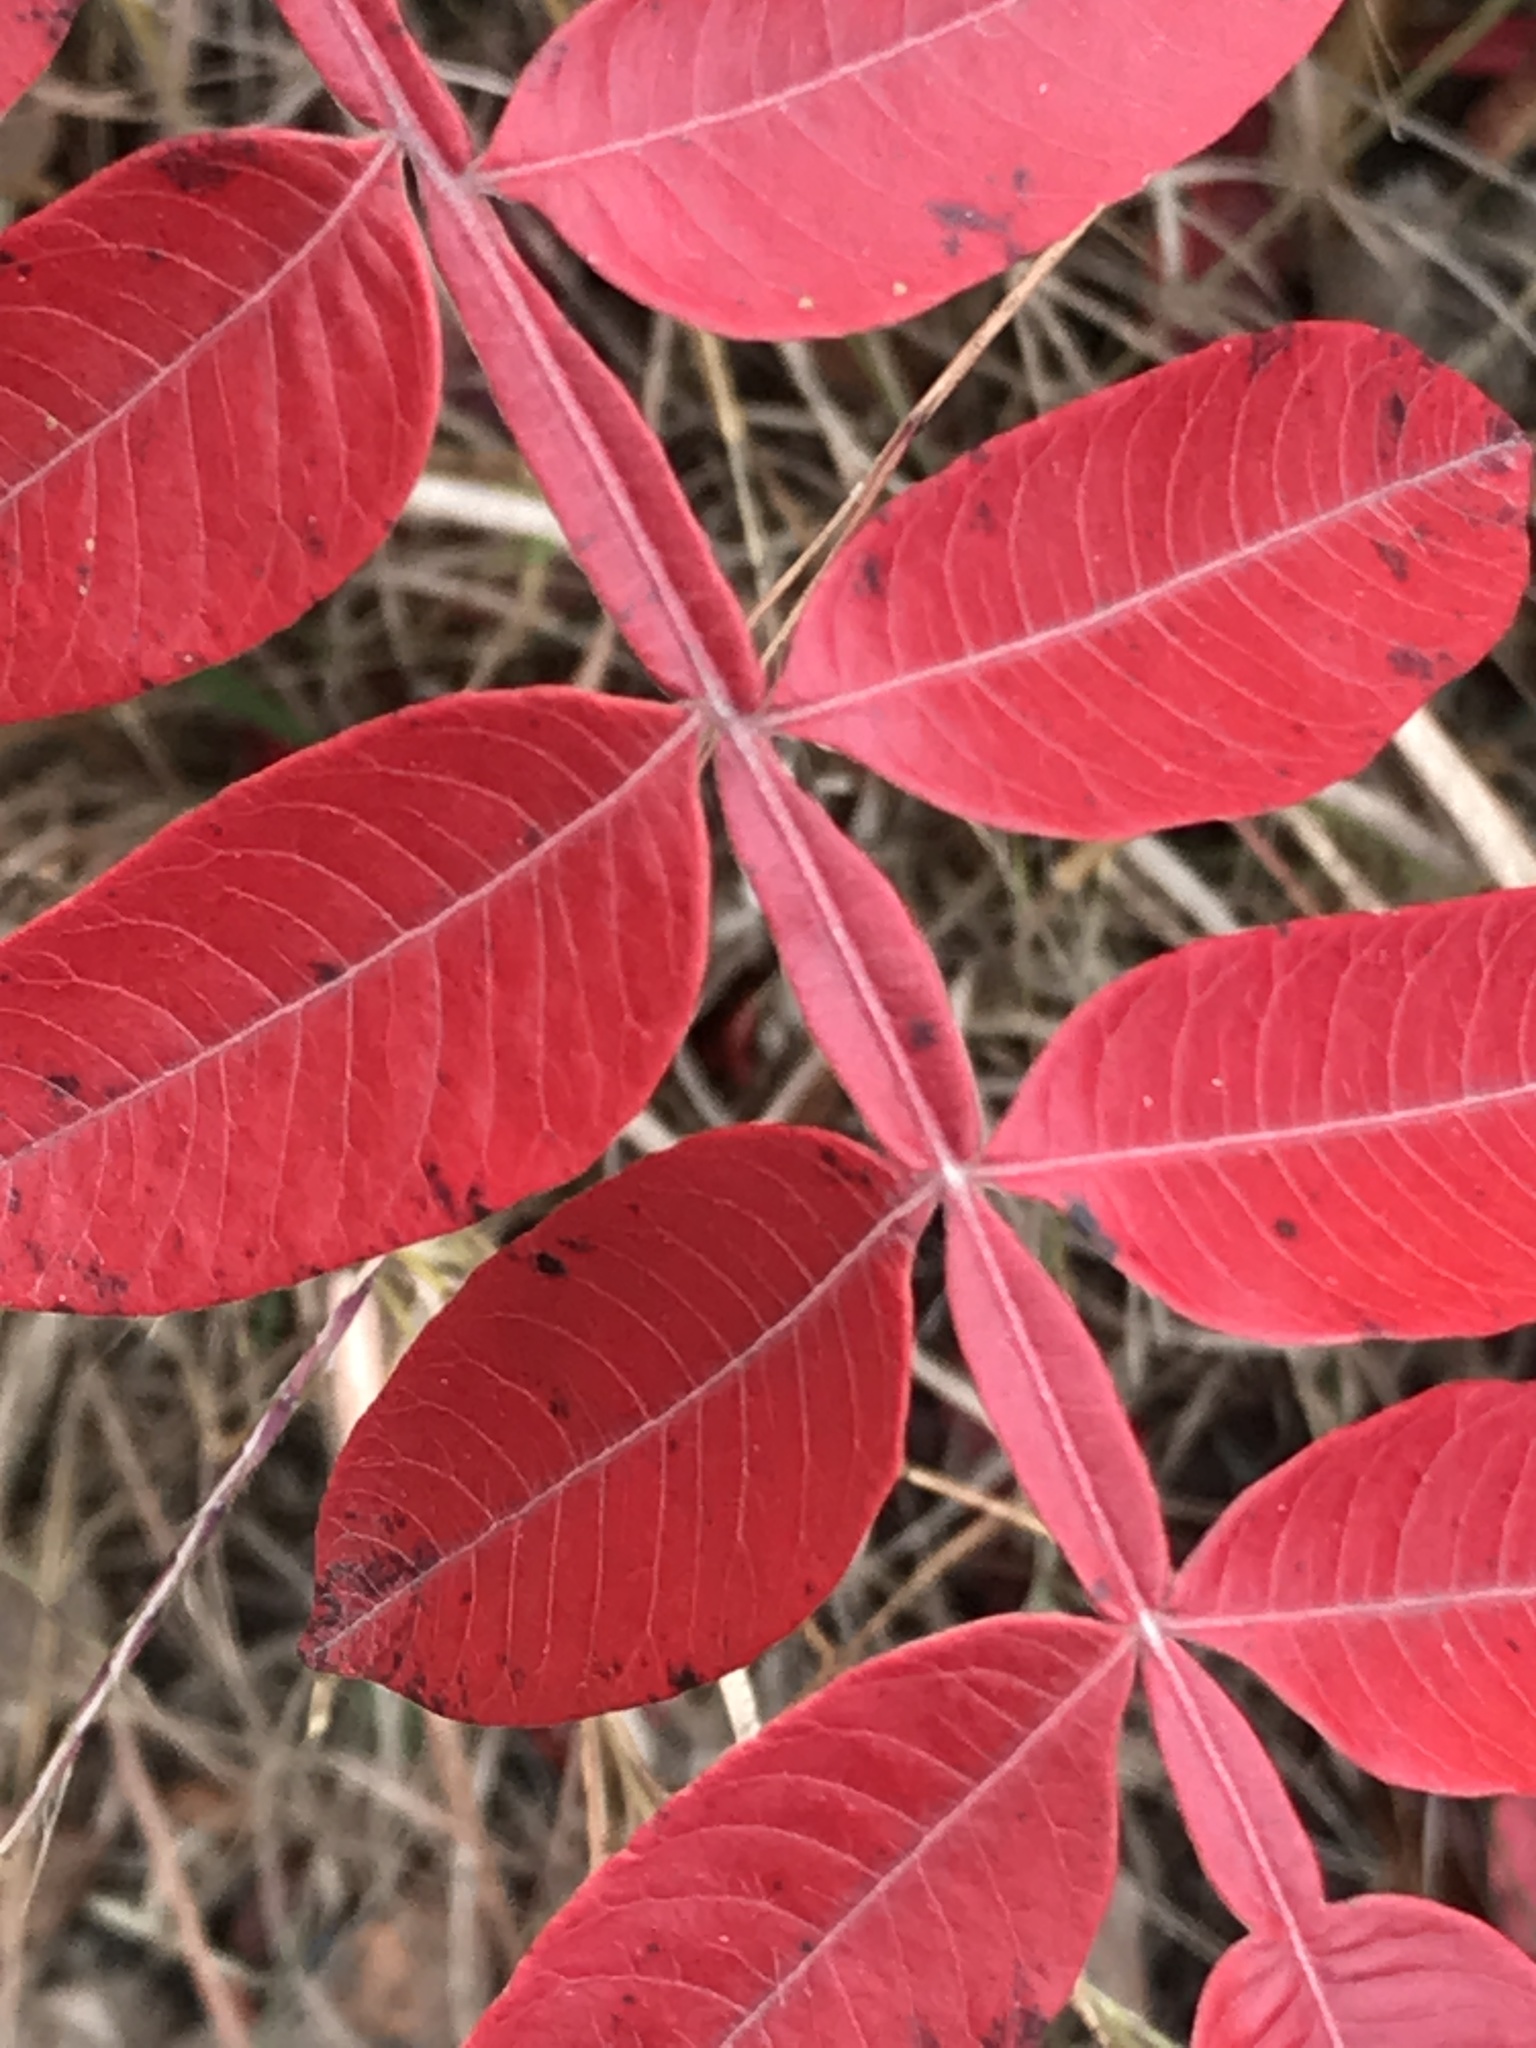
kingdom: Plantae
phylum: Tracheophyta
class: Magnoliopsida
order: Sapindales
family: Anacardiaceae
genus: Rhus
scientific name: Rhus copallina
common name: Shining sumac
